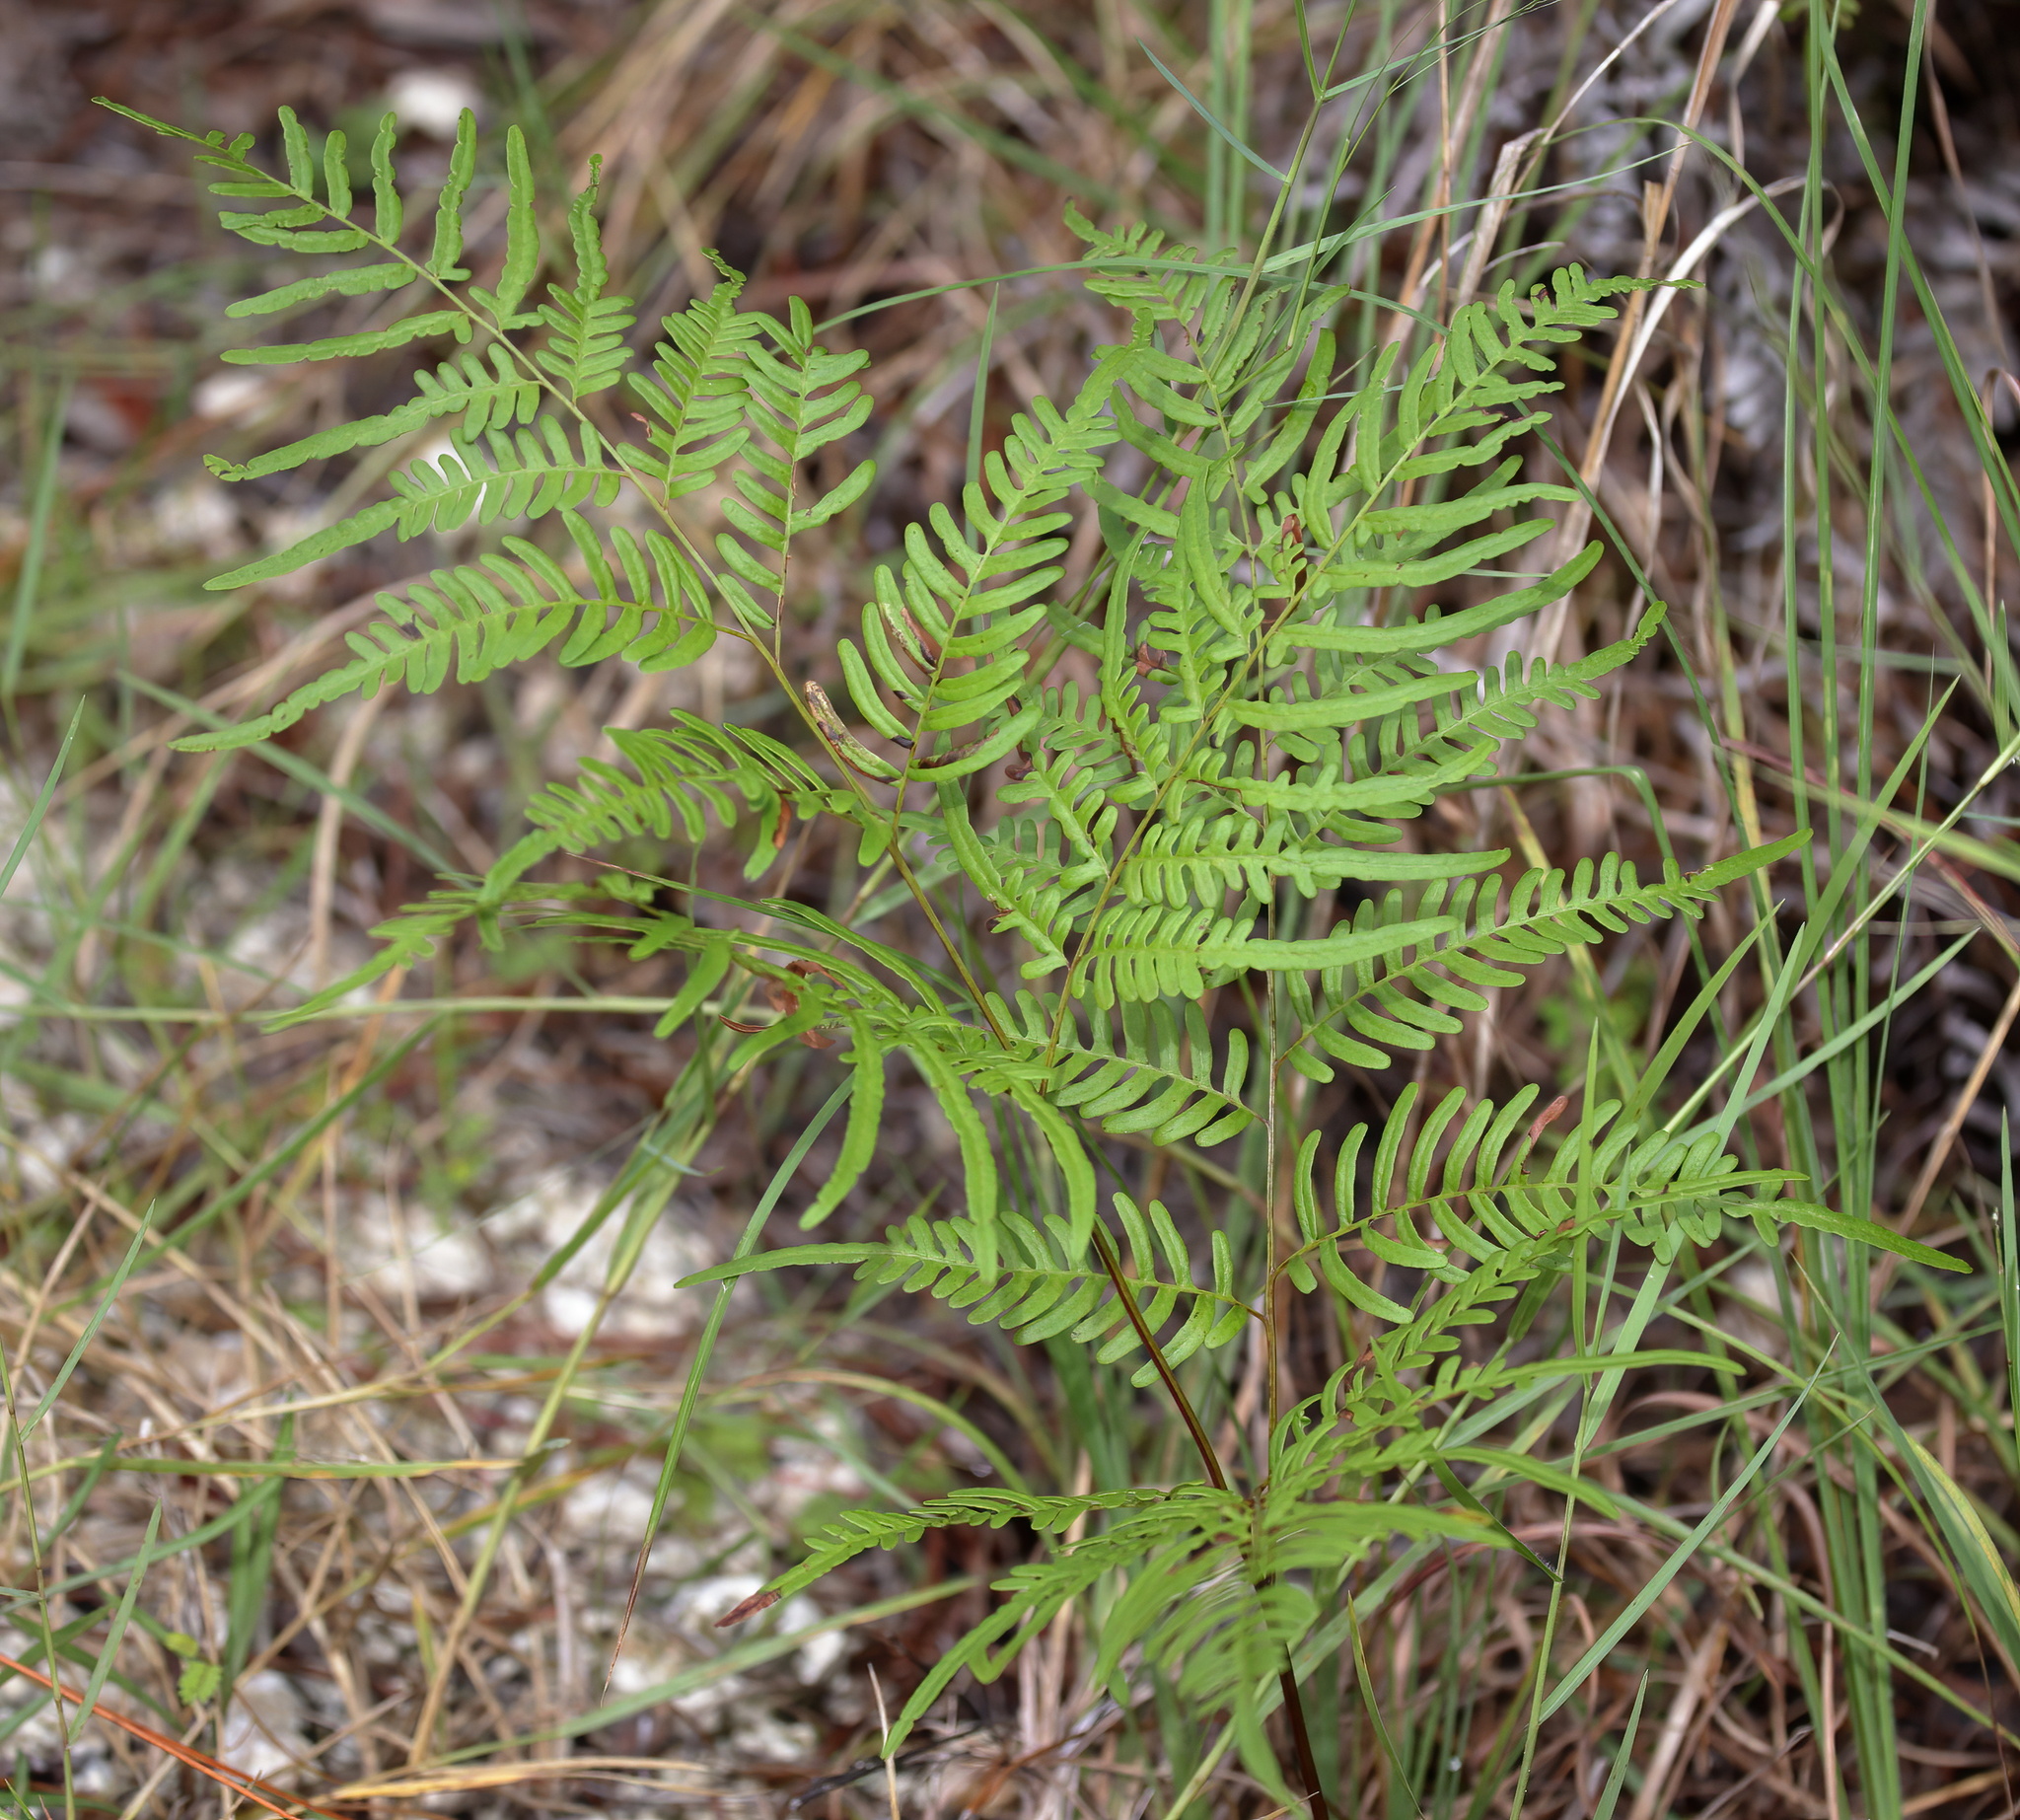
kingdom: Plantae
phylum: Tracheophyta
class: Polypodiopsida
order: Polypodiales
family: Dennstaedtiaceae
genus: Pteridium
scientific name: Pteridium
